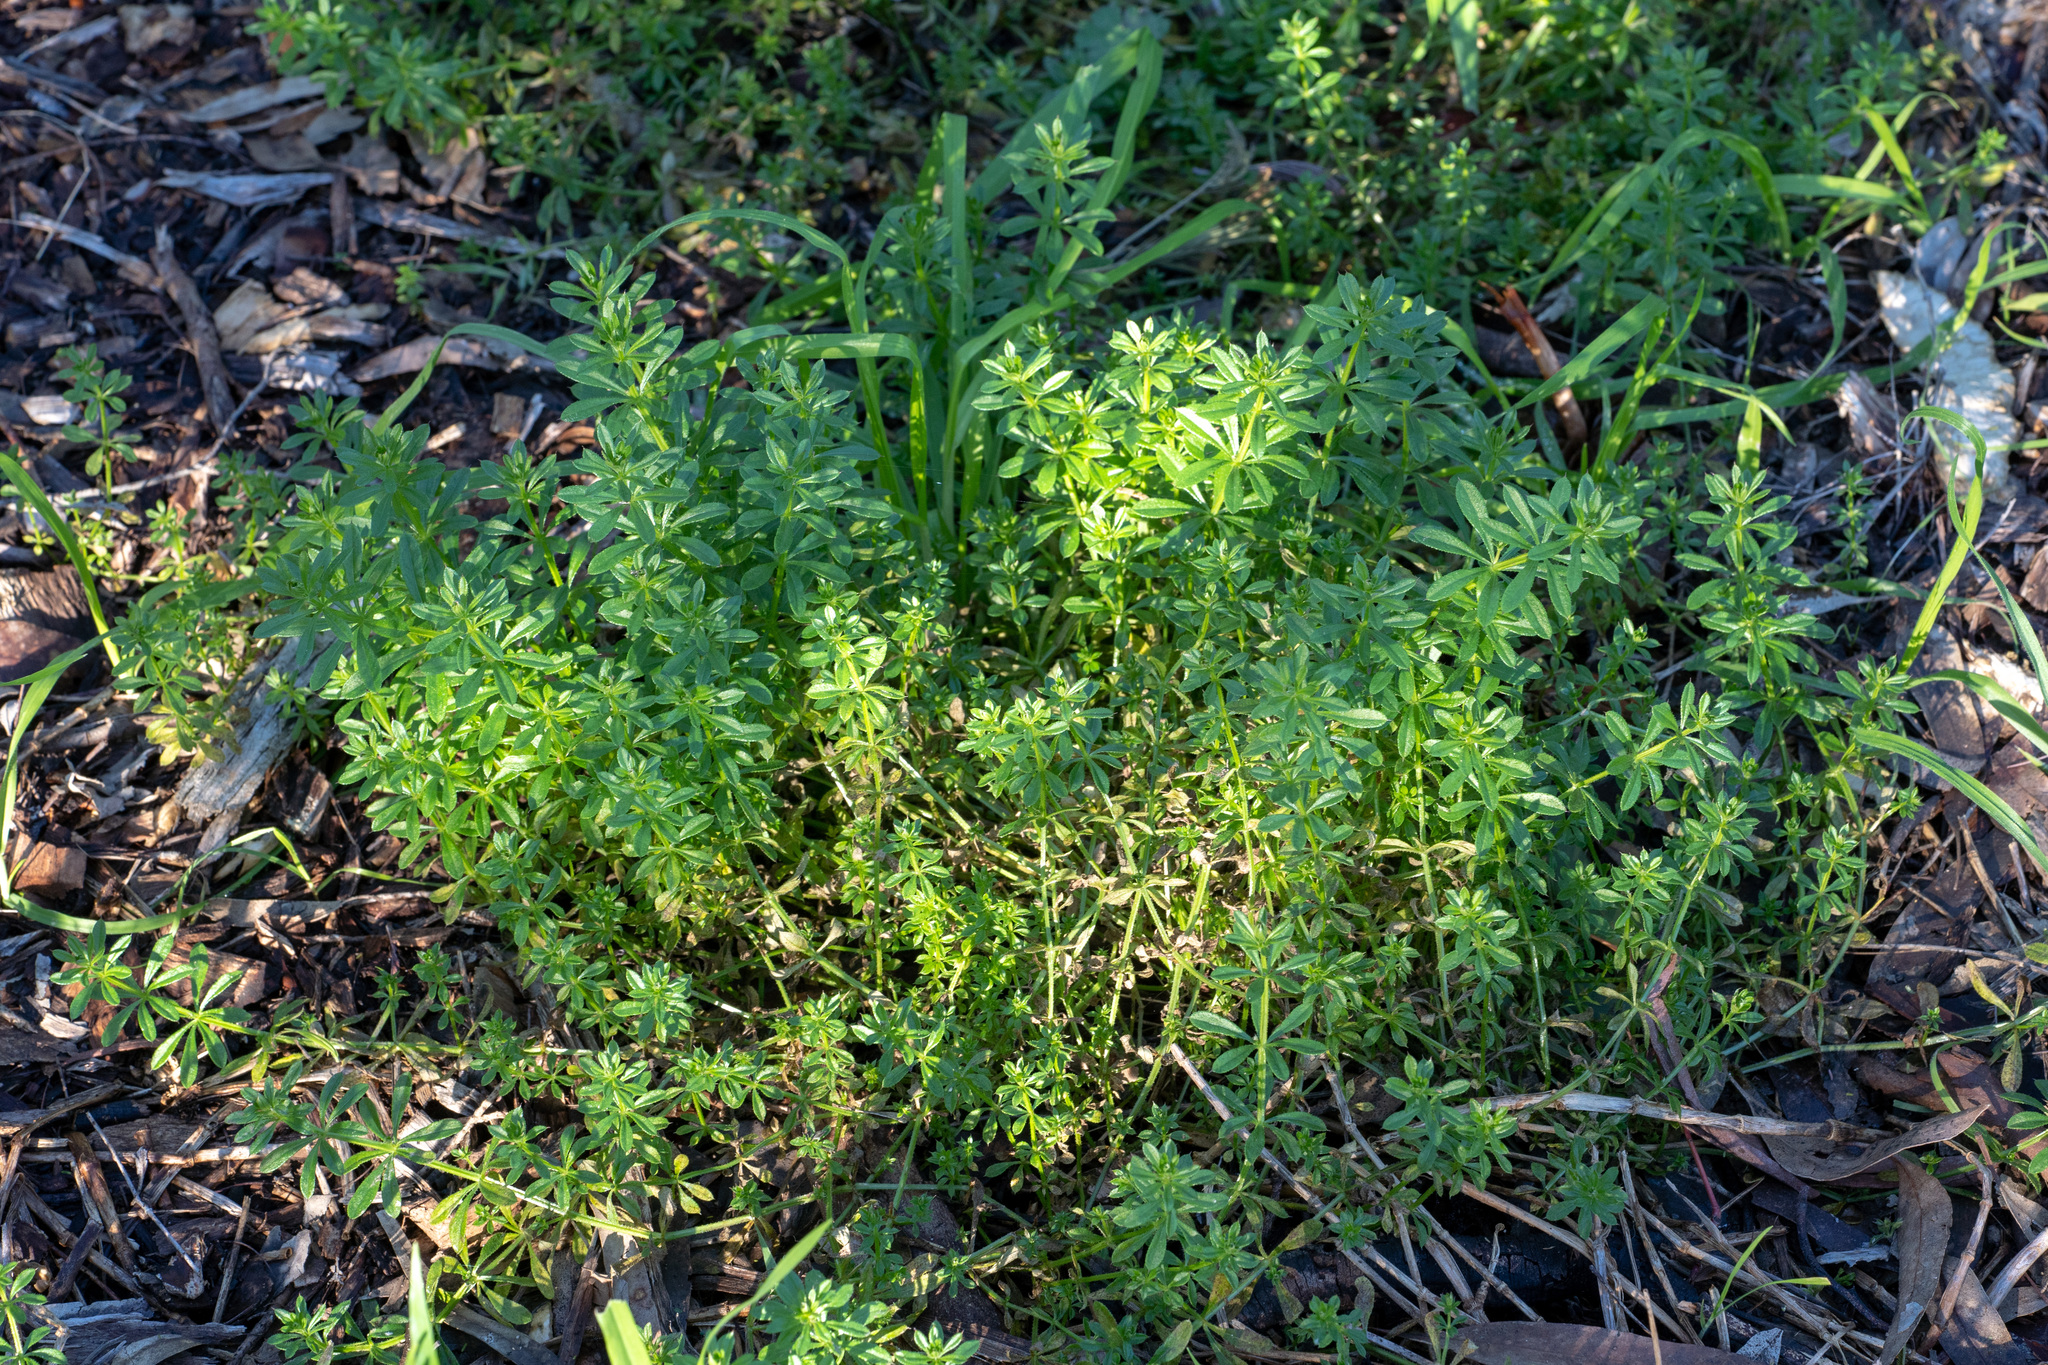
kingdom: Plantae
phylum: Tracheophyta
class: Magnoliopsida
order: Gentianales
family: Rubiaceae
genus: Galium
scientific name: Galium aparine
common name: Cleavers
